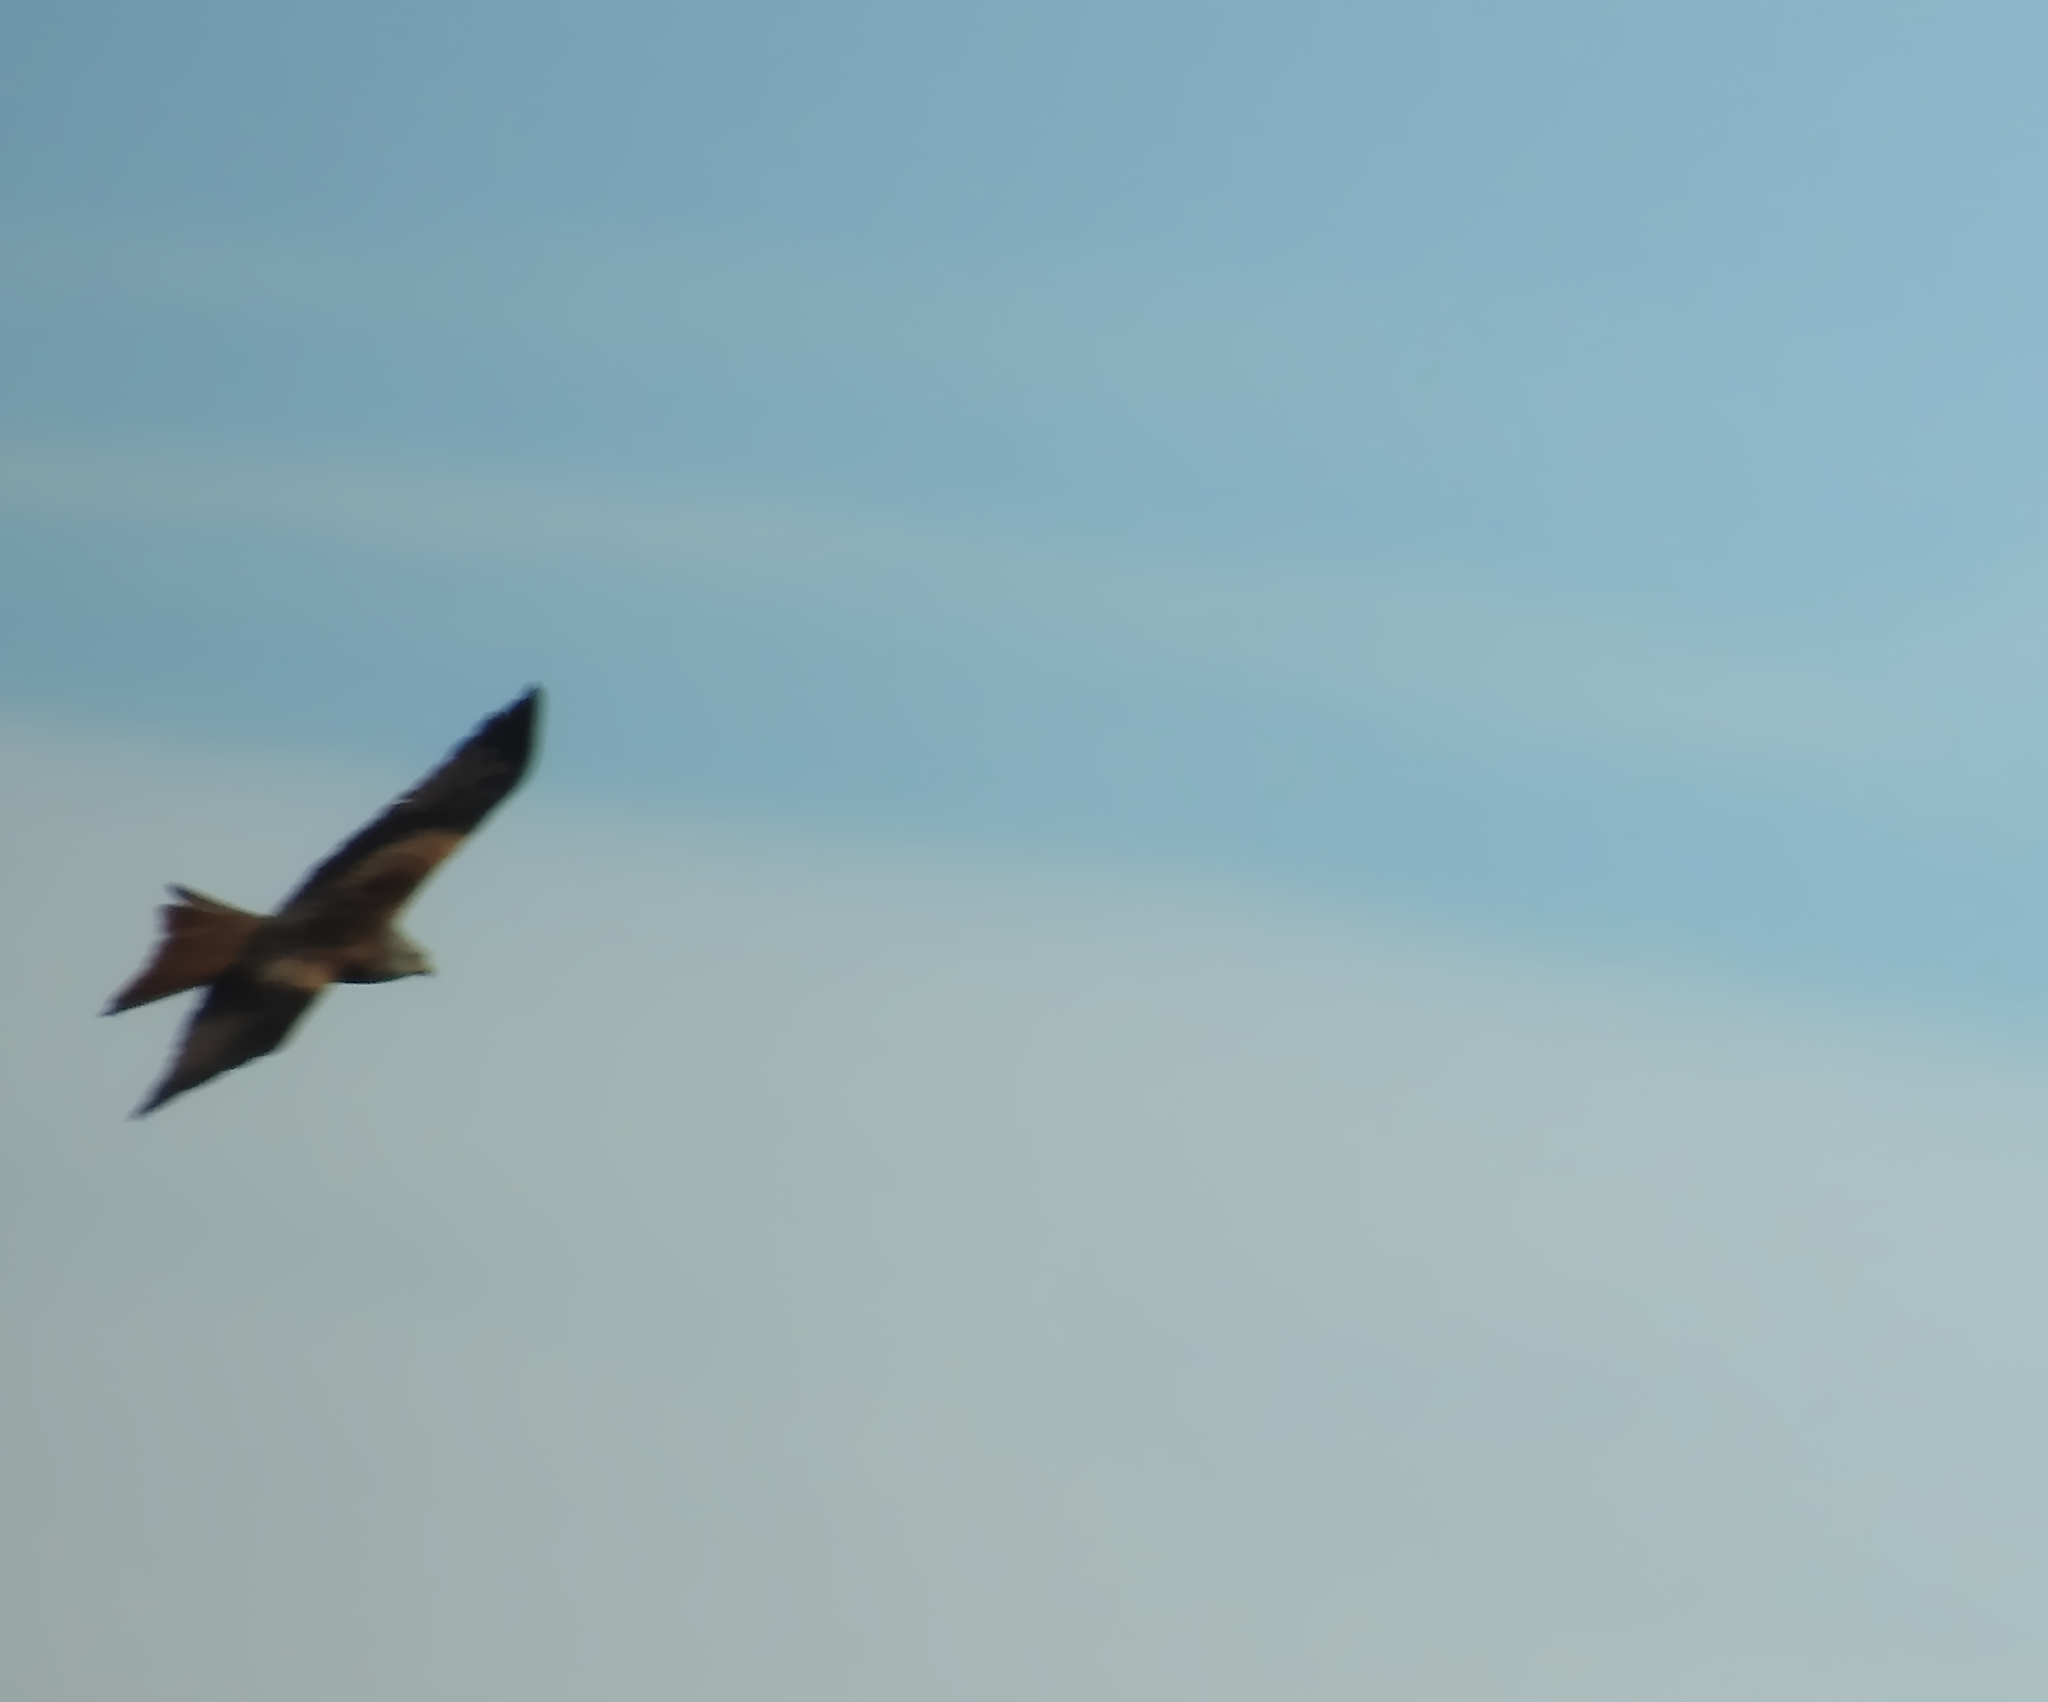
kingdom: Animalia
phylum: Chordata
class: Aves
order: Accipitriformes
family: Accipitridae
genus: Milvus
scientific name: Milvus milvus
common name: Red kite
